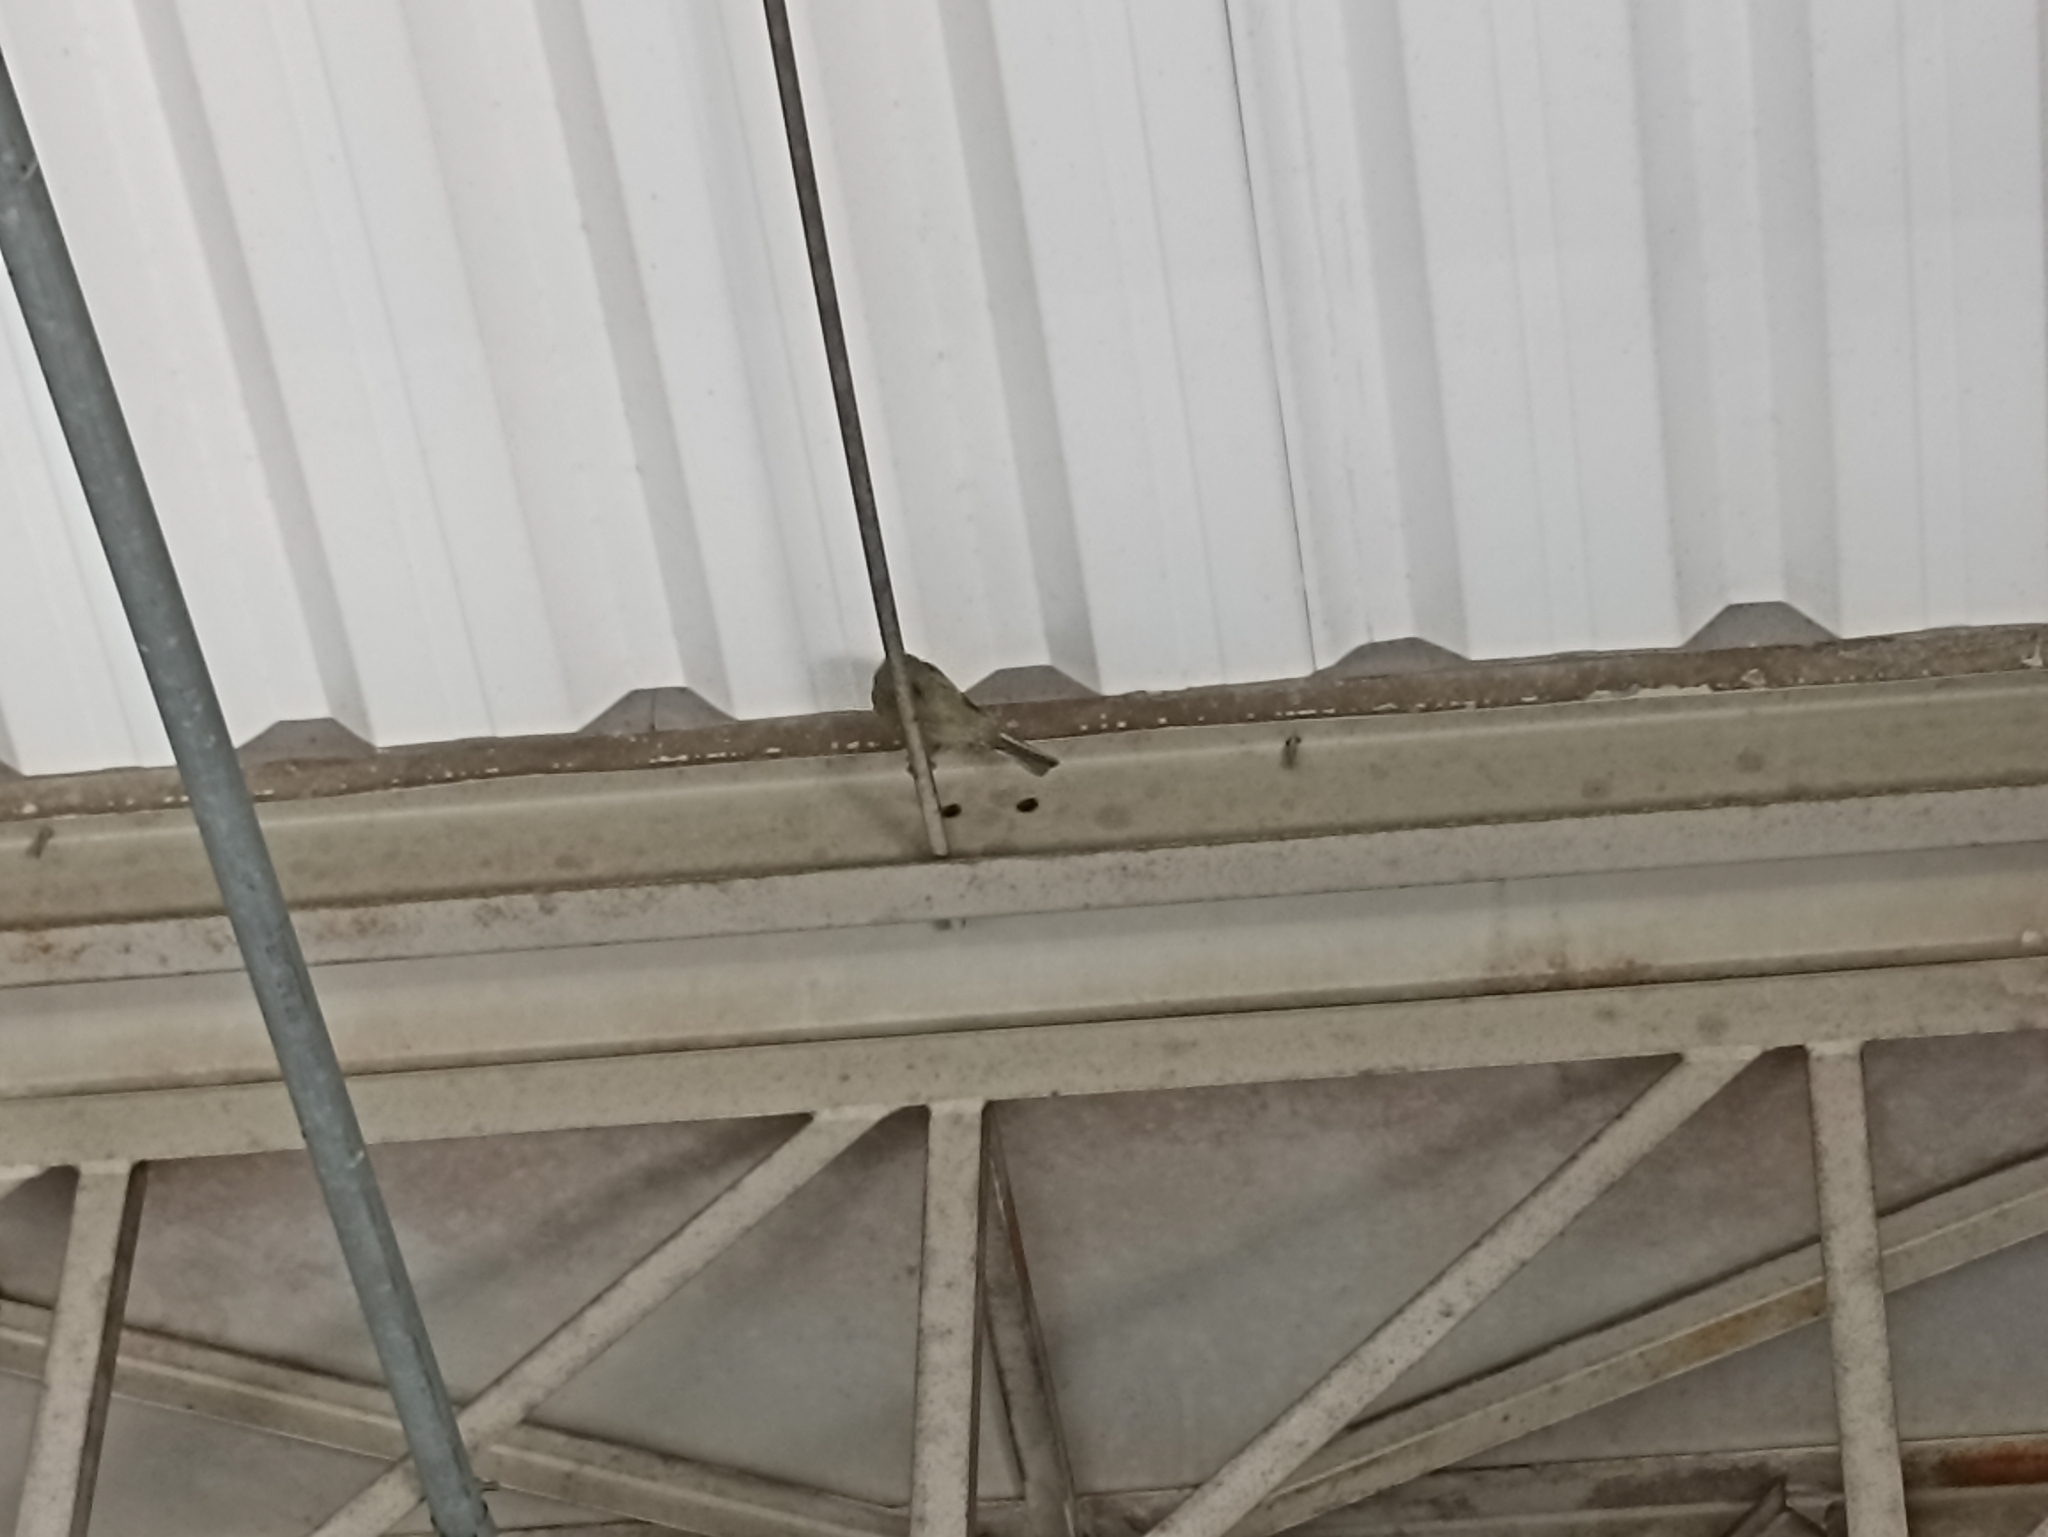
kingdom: Animalia
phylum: Chordata
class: Aves
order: Passeriformes
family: Thraupidae
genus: Thraupis
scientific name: Thraupis palmarum
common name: Palm tanager
